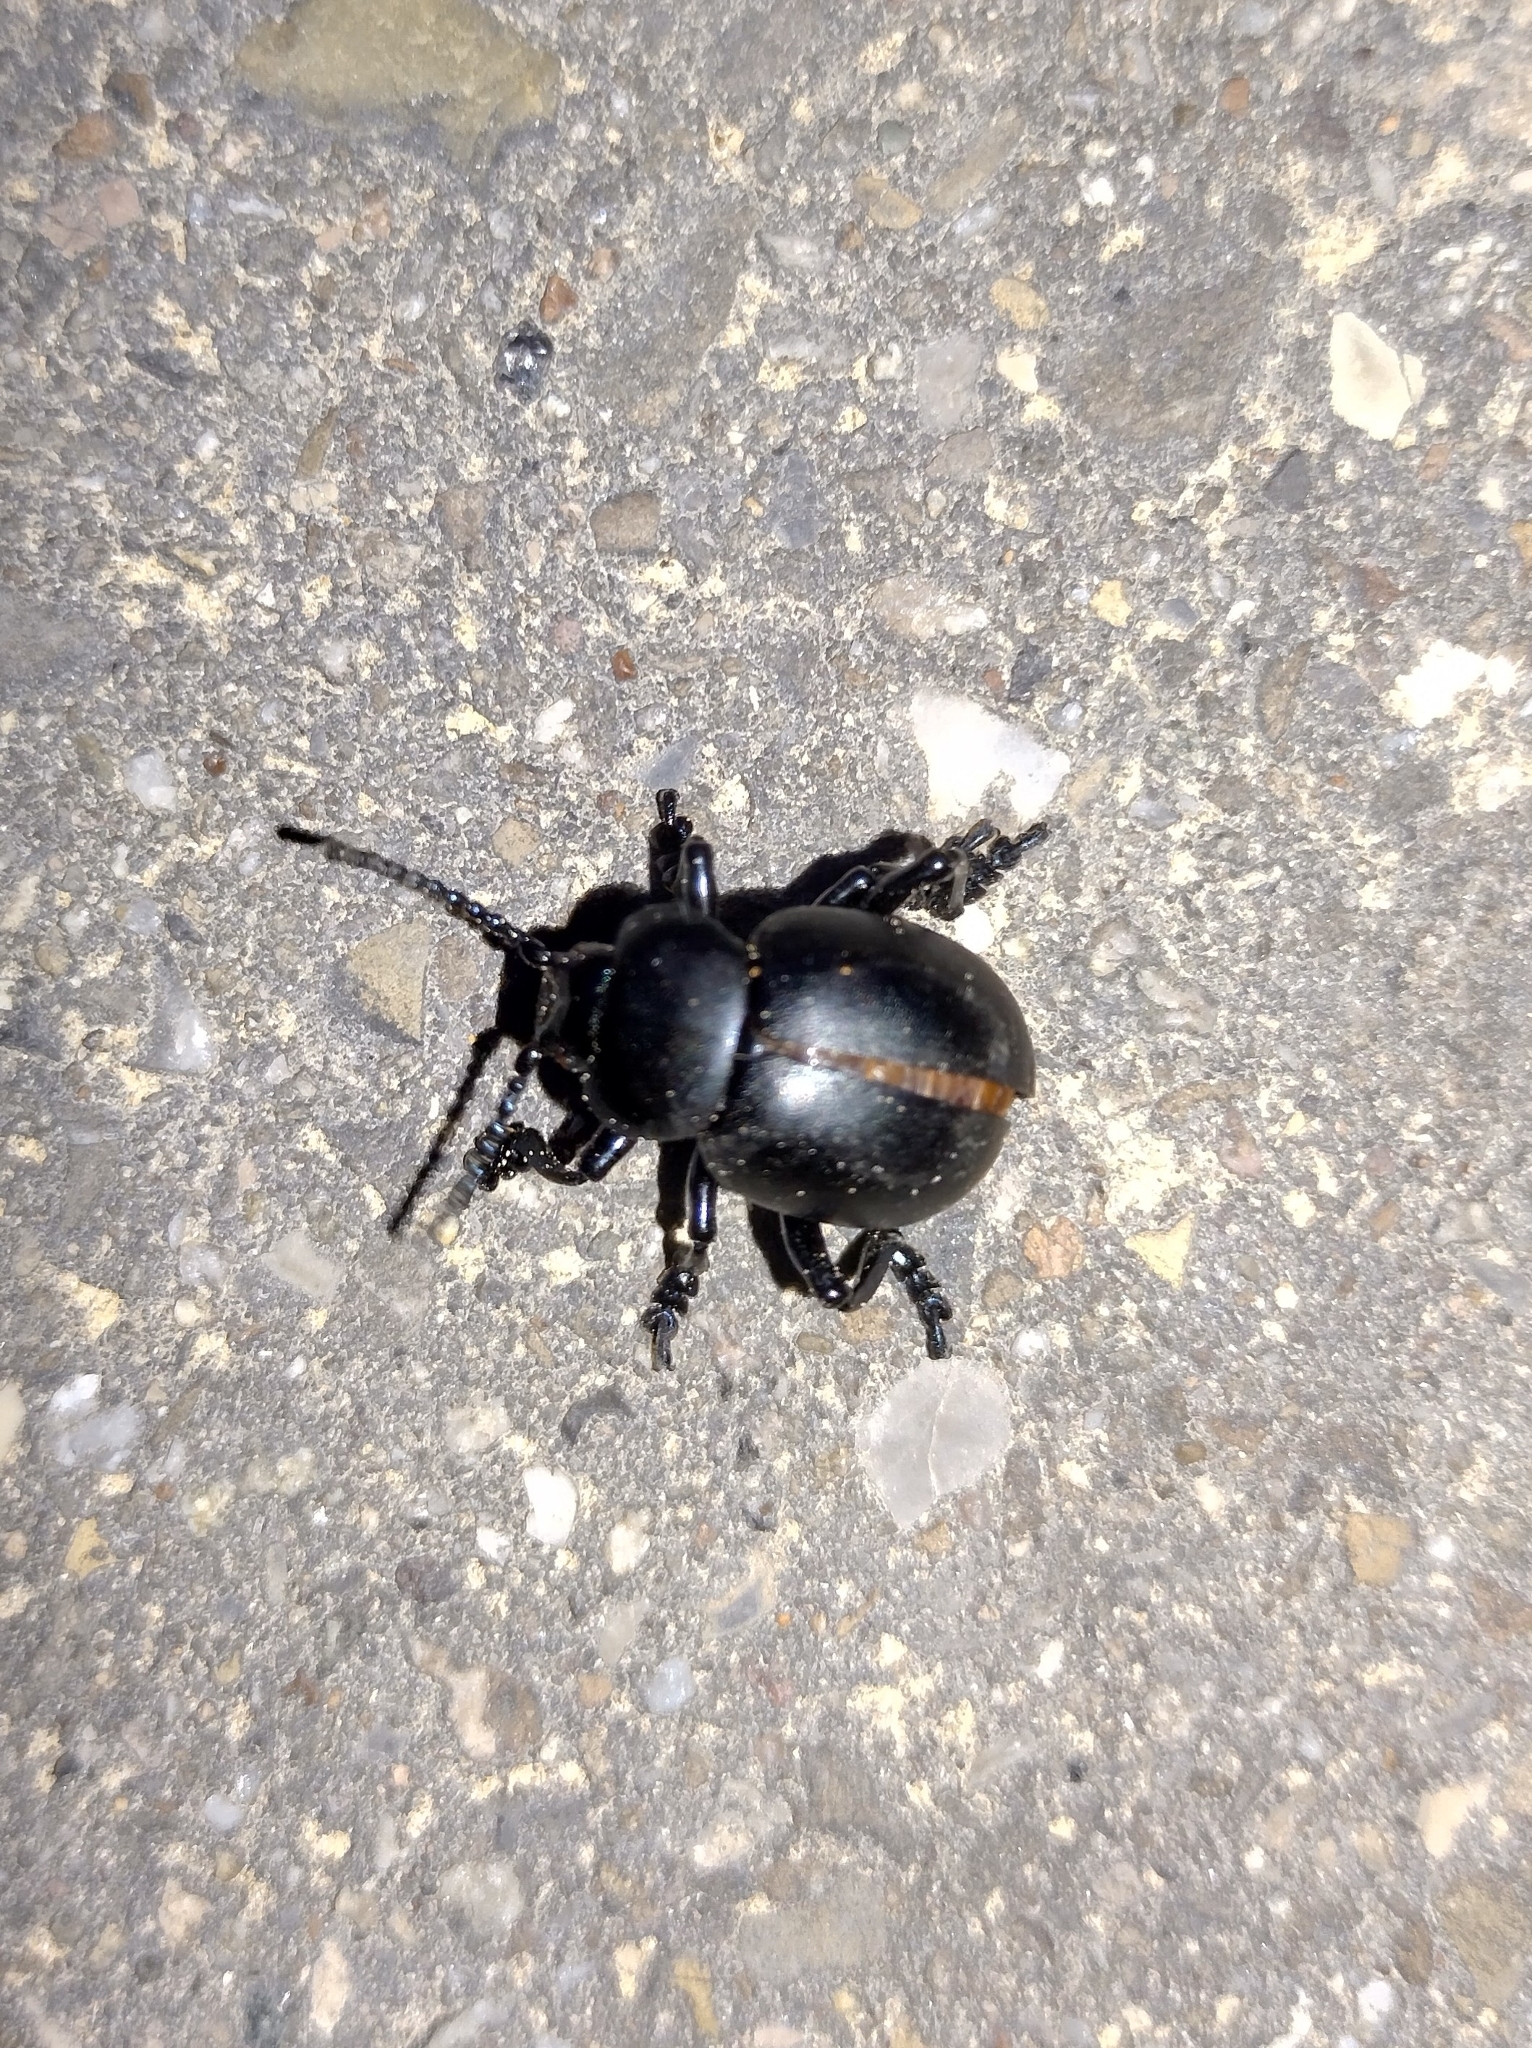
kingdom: Animalia
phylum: Arthropoda
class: Insecta
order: Coleoptera
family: Chrysomelidae
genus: Timarcha
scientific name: Timarcha tenebricosa
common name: Bloody-nosed beetle
